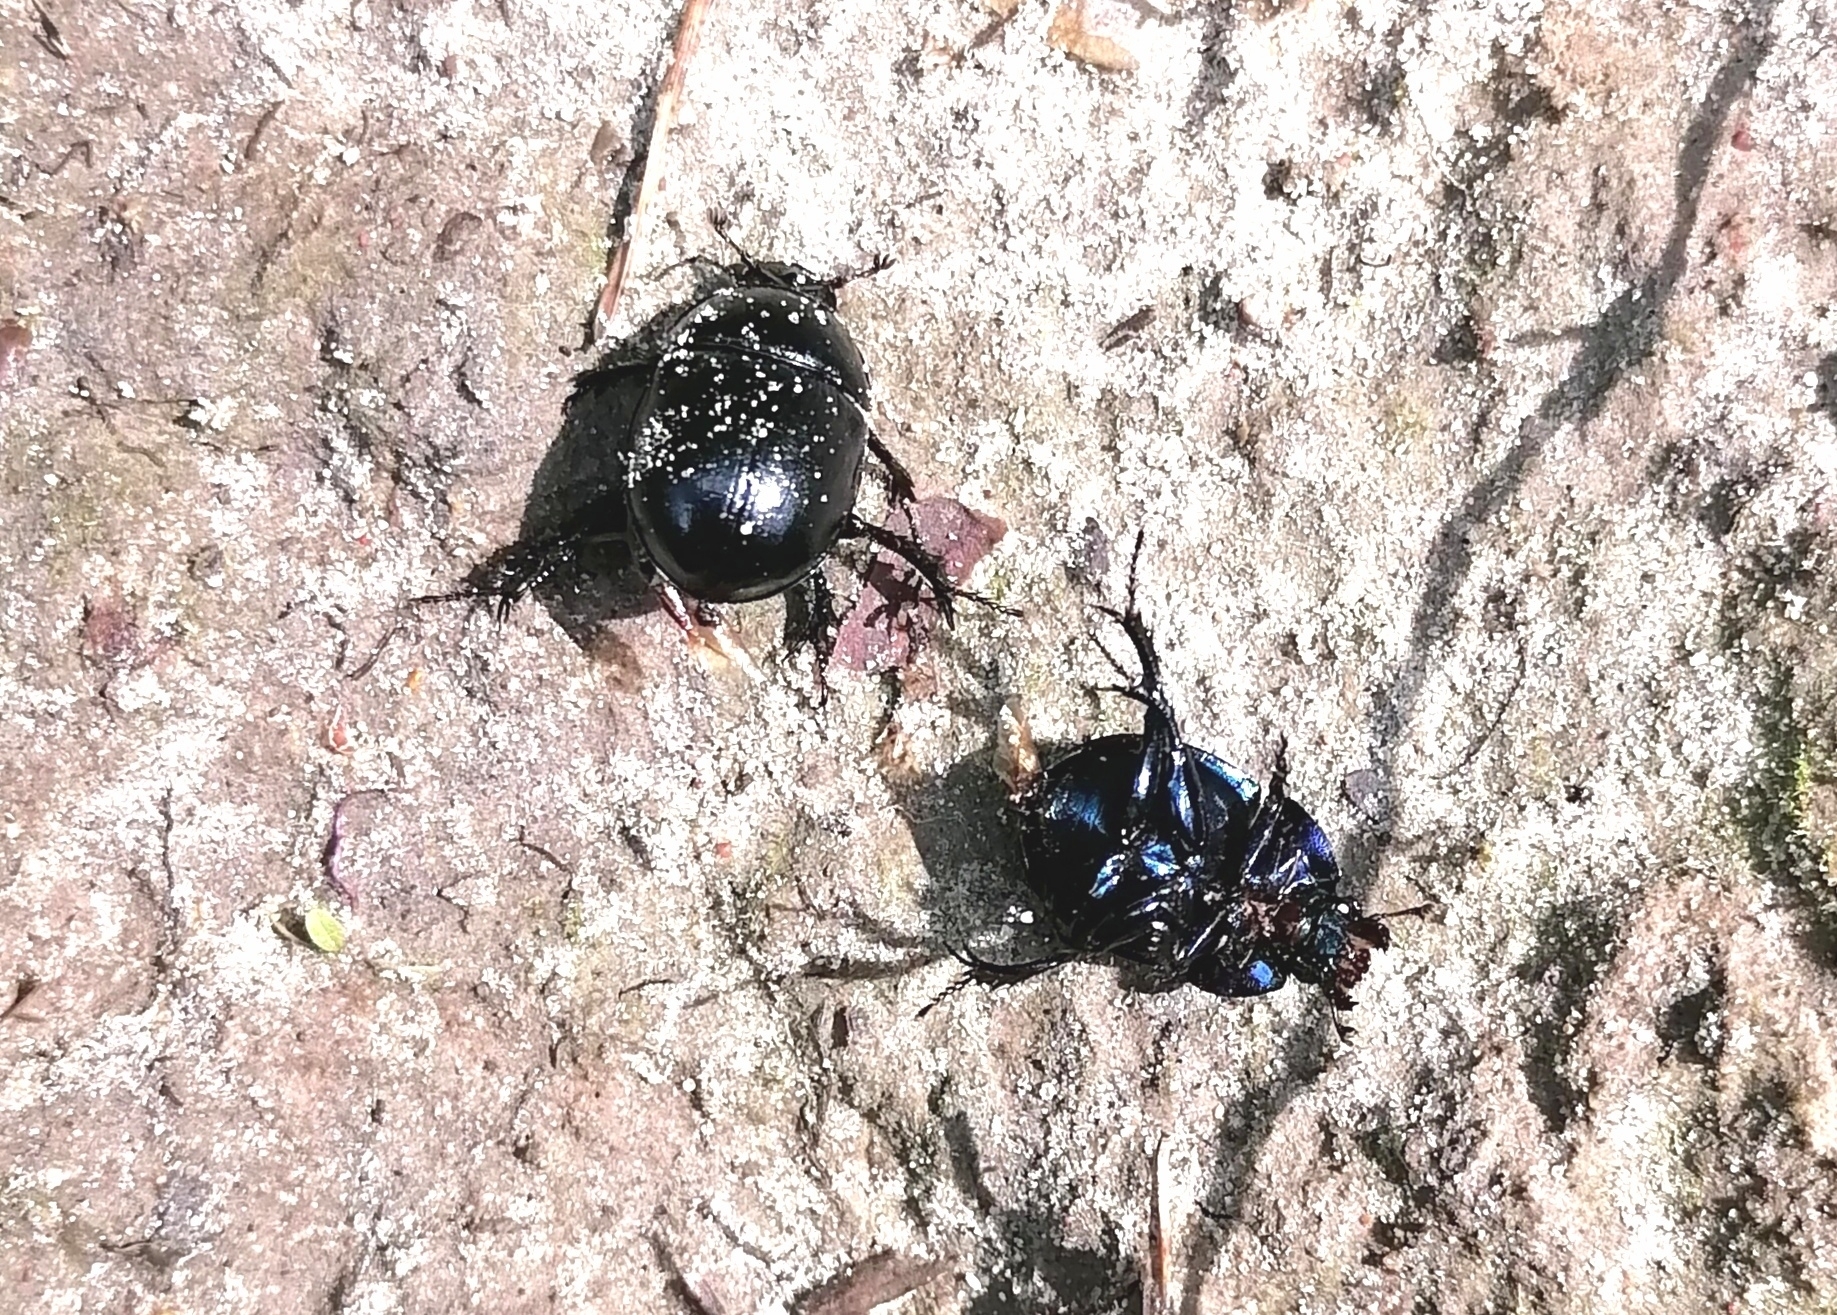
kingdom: Animalia
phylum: Arthropoda
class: Insecta
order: Coleoptera
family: Geotrupidae
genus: Anoplotrupes
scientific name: Anoplotrupes stercorosus
